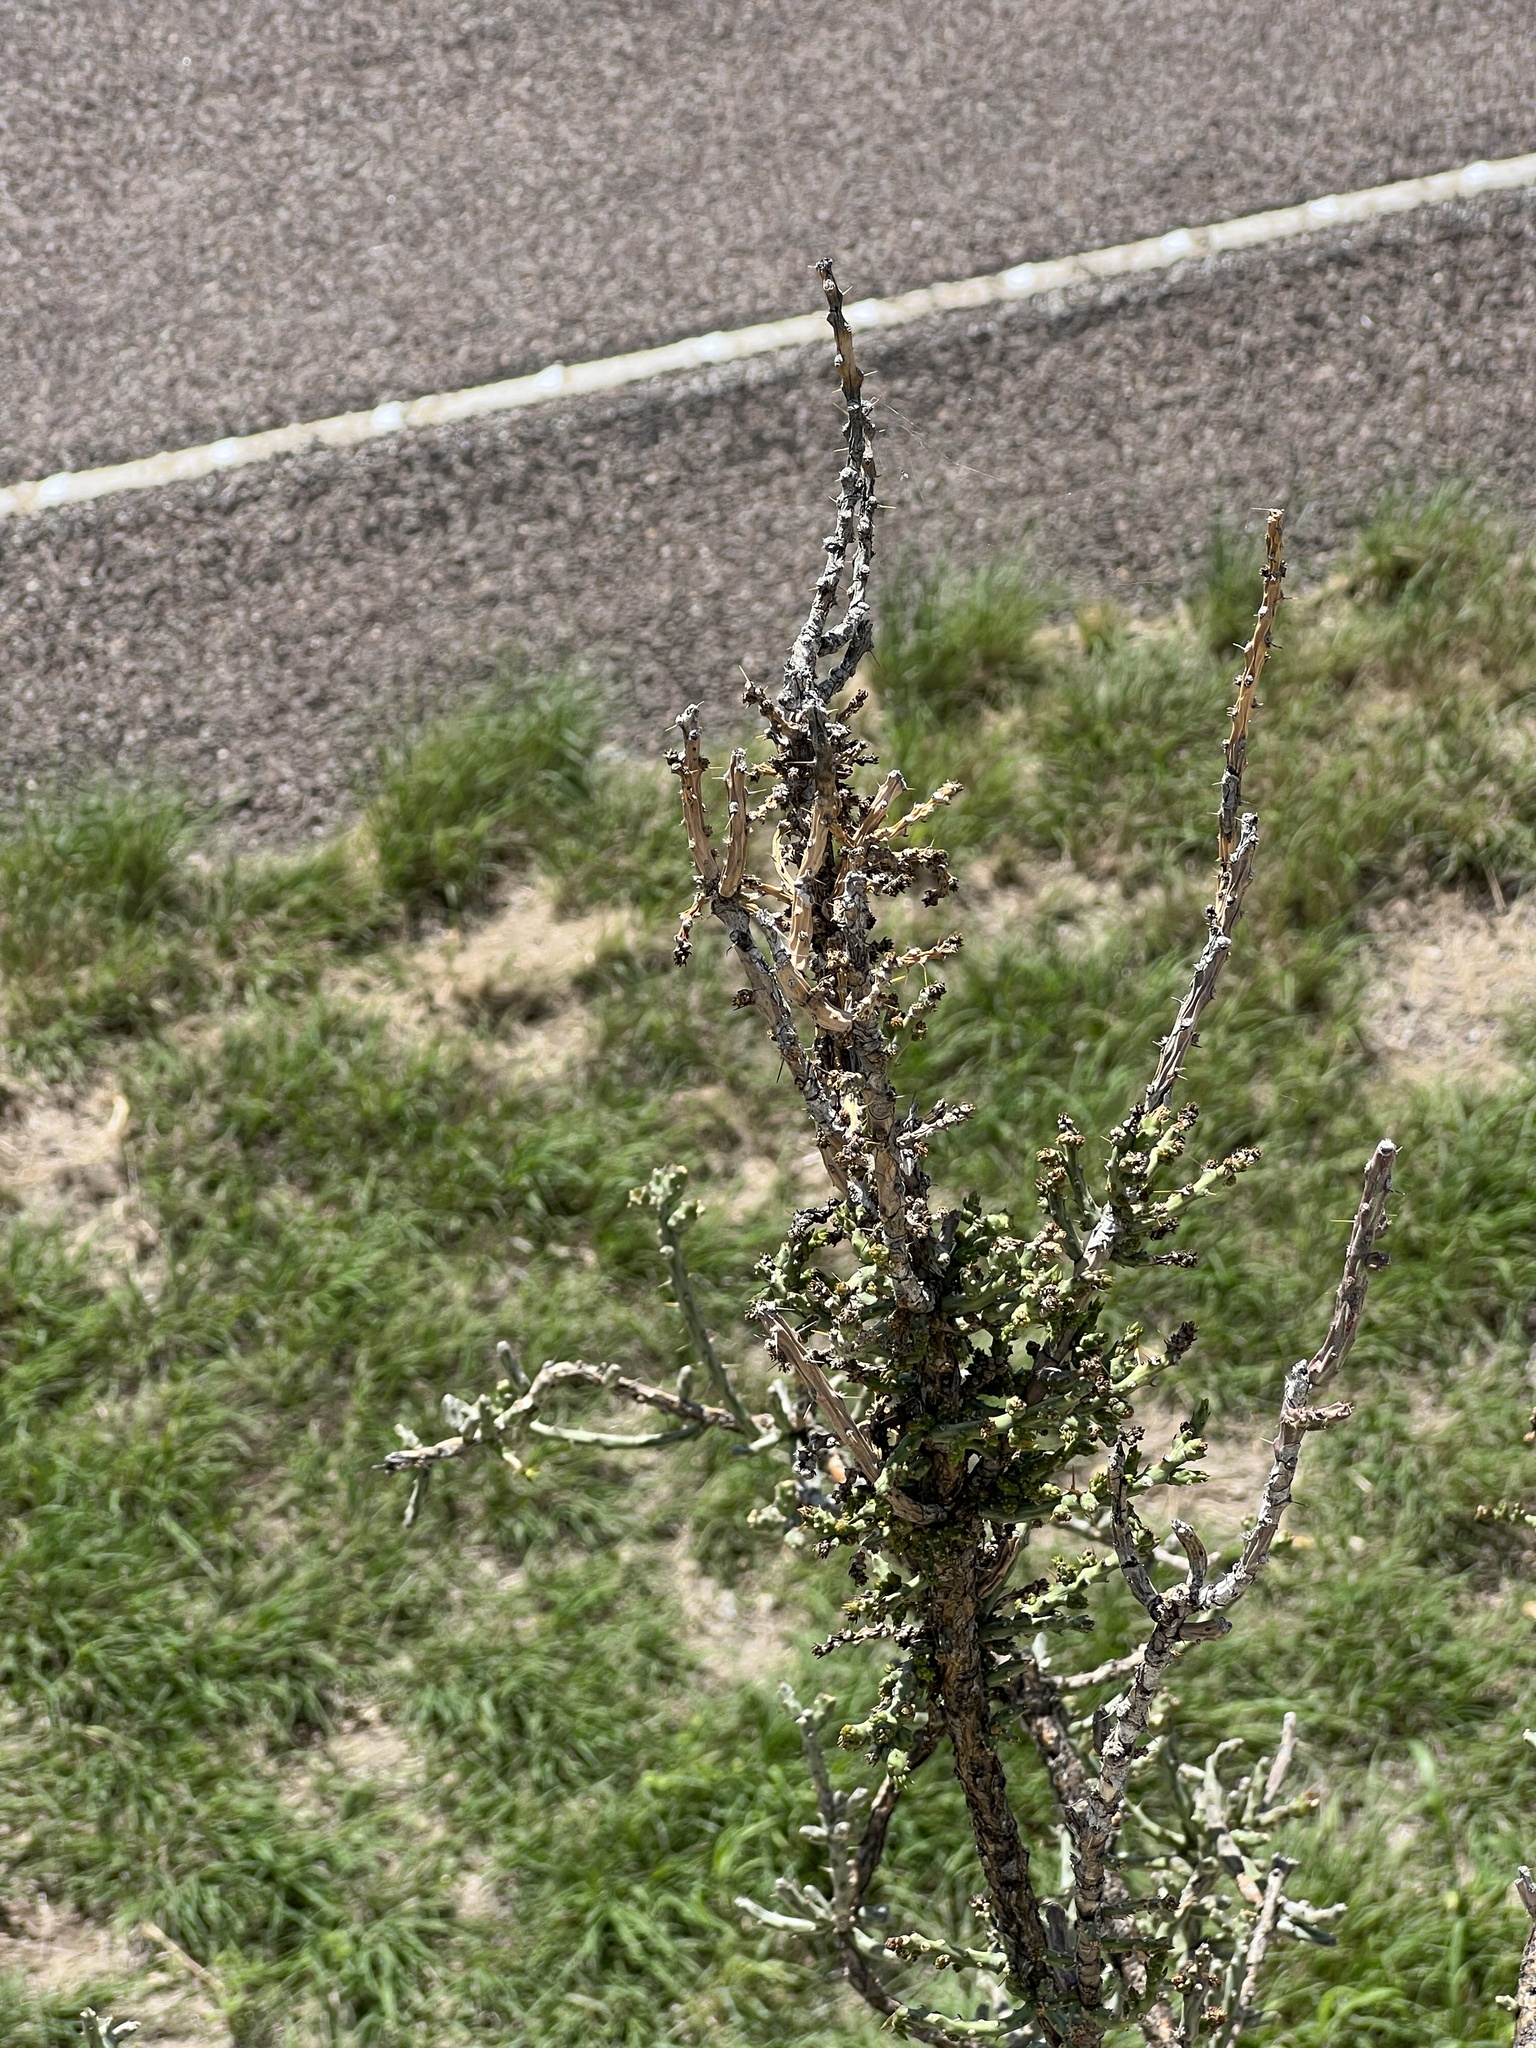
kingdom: Plantae
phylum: Tracheophyta
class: Magnoliopsida
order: Caryophyllales
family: Cactaceae
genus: Cylindropuntia
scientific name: Cylindropuntia leptocaulis
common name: Christmas cactus
